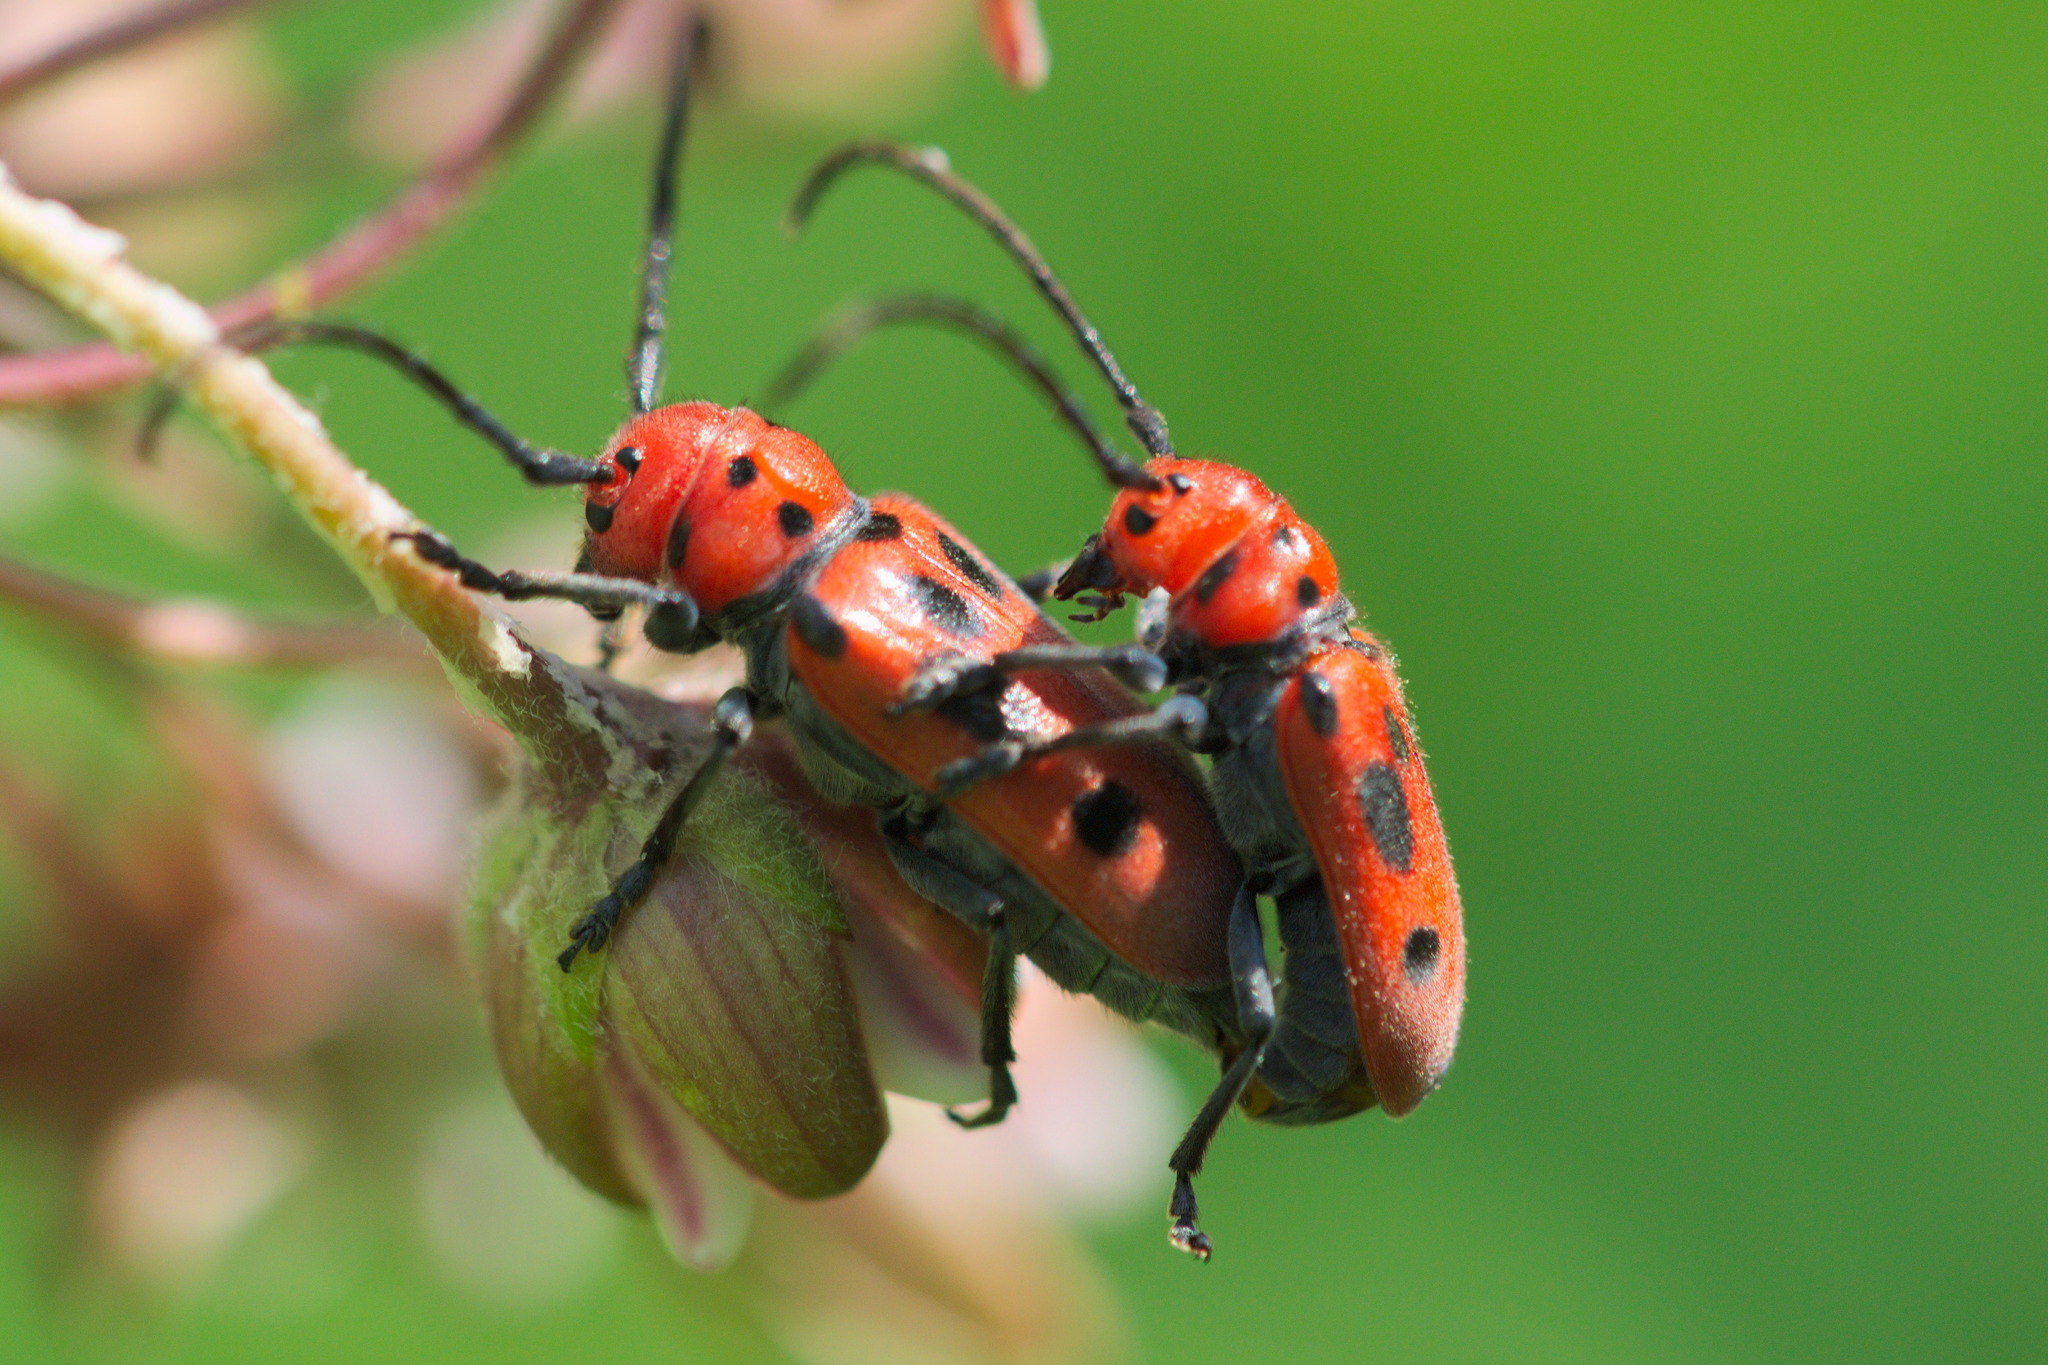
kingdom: Animalia
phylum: Arthropoda
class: Insecta
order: Coleoptera
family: Cerambycidae
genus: Tetraopes
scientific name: Tetraopes tetrophthalmus
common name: Red milkweed beetle
